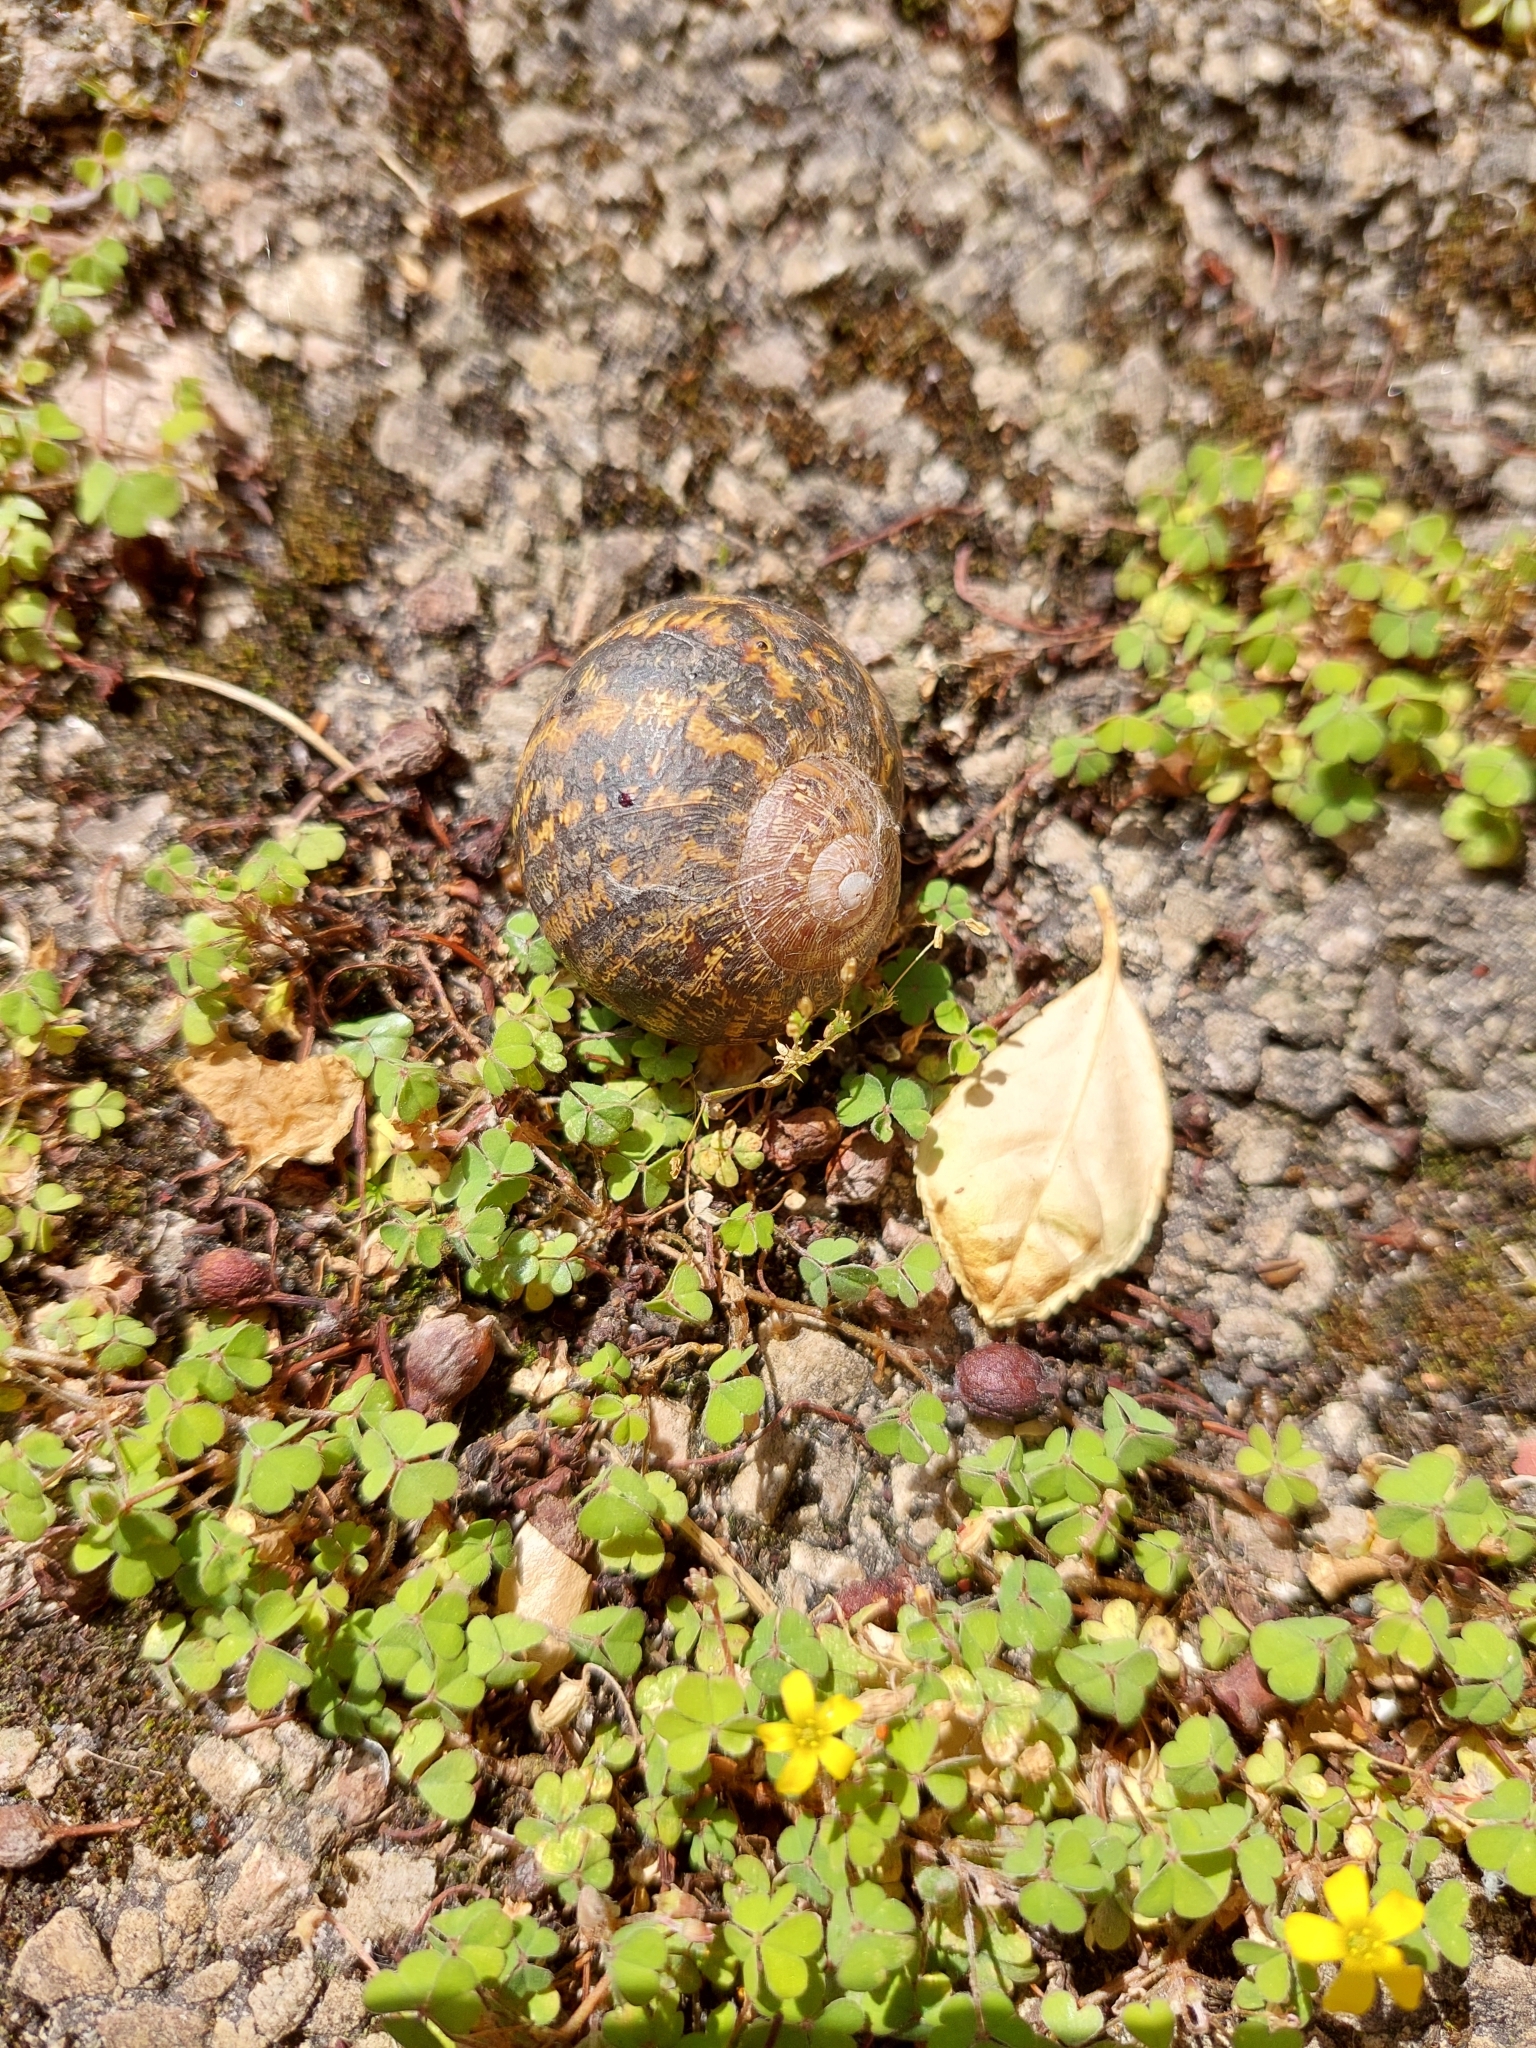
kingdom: Animalia
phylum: Mollusca
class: Gastropoda
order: Stylommatophora
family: Helicidae
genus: Cornu
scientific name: Cornu aspersum
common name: Brown garden snail
